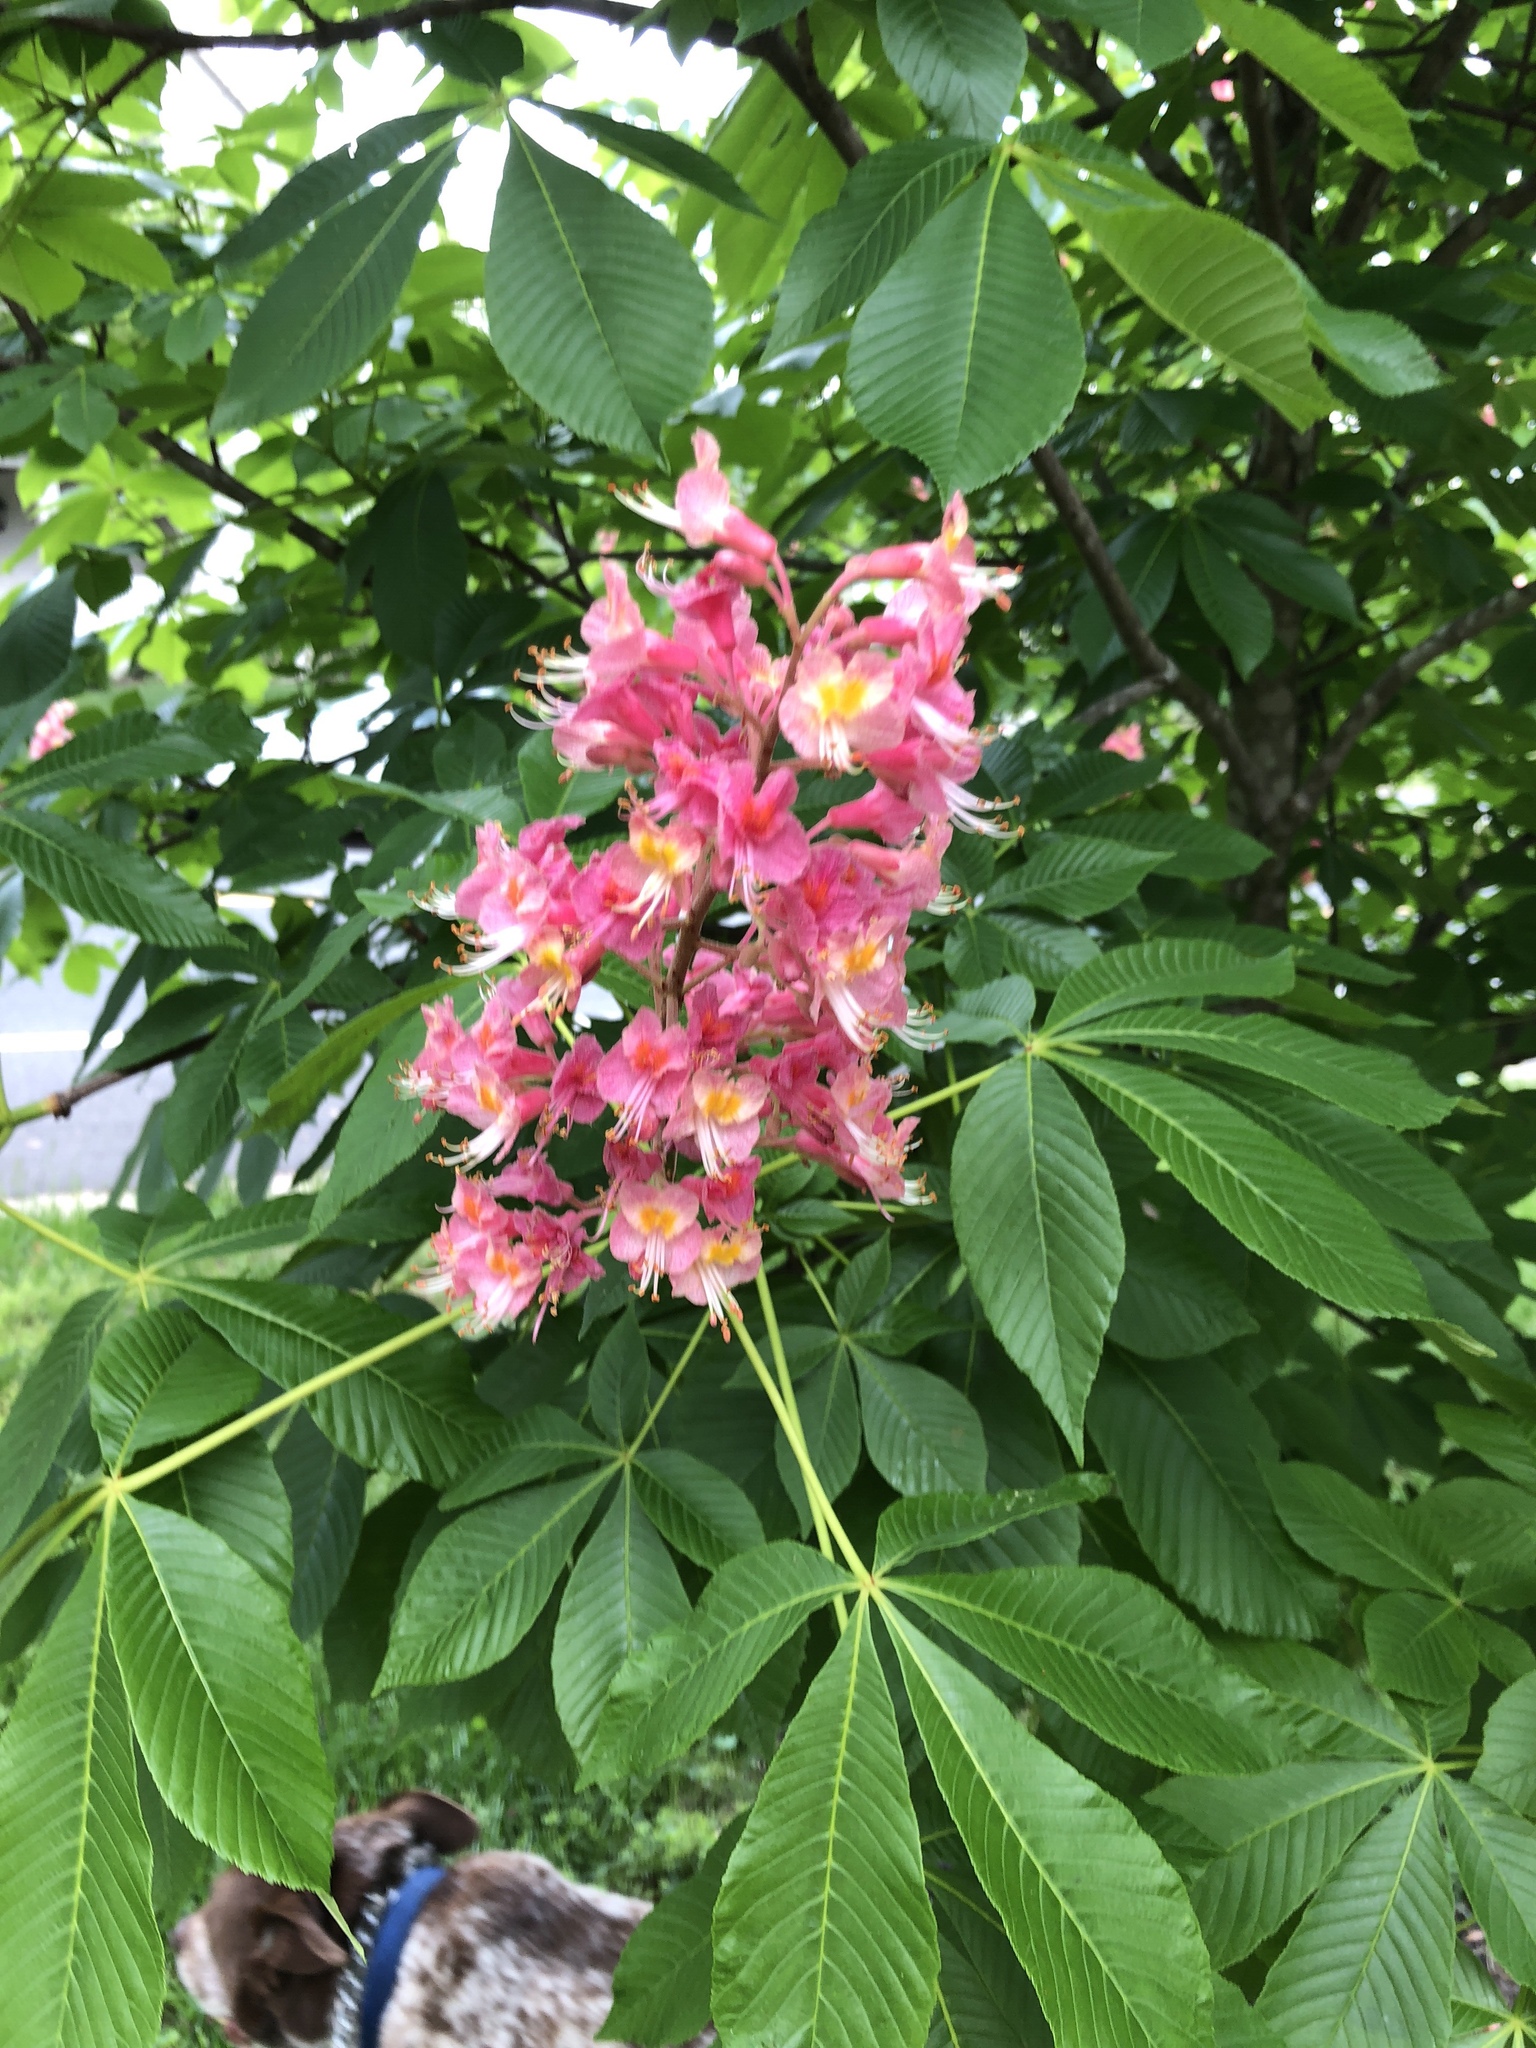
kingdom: Plantae
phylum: Tracheophyta
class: Magnoliopsida
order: Sapindales
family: Sapindaceae
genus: Aesculus
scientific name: Aesculus pavia
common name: Red buckeye
